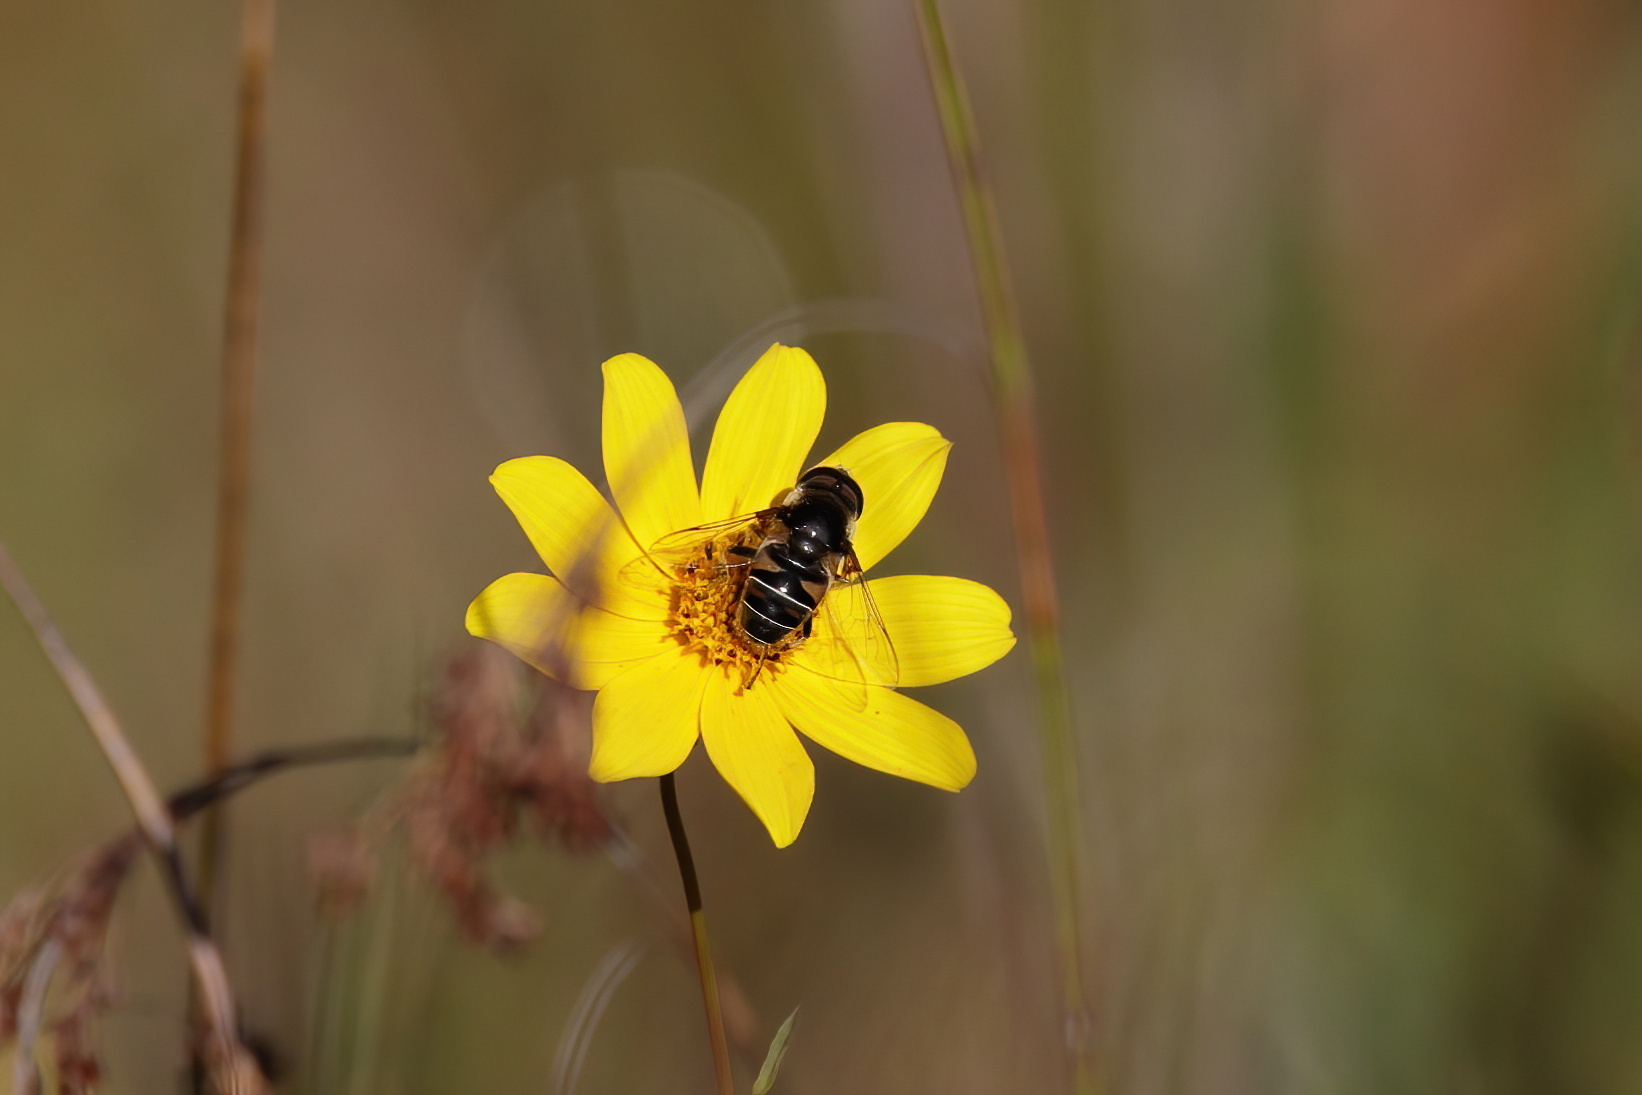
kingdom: Animalia
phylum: Arthropoda
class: Insecta
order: Diptera
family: Syrphidae
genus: Eristalis
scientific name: Eristalis dimidiata
